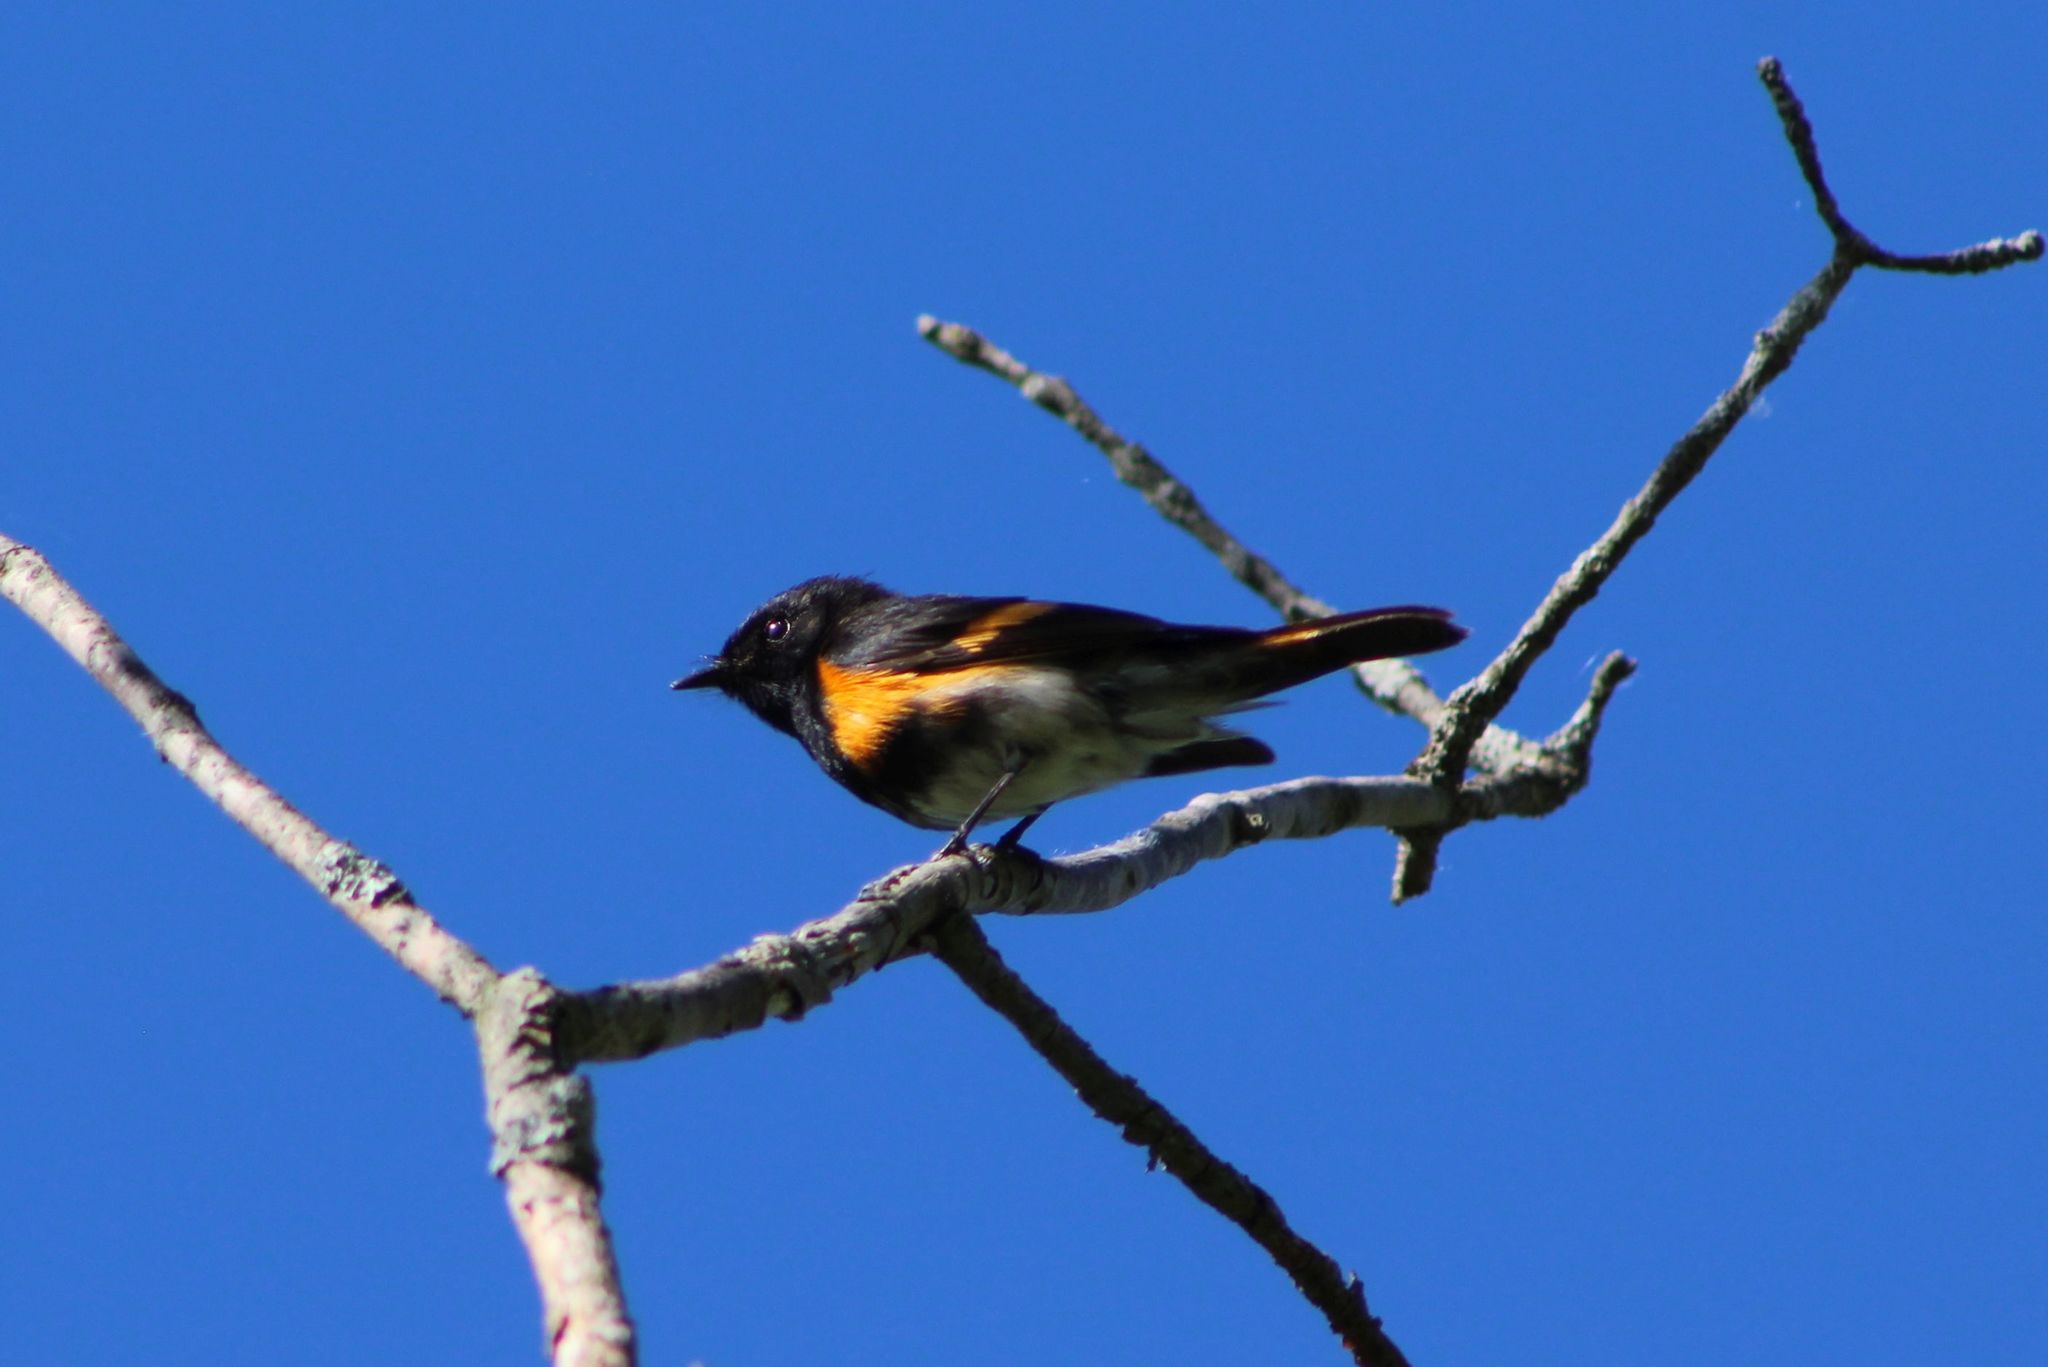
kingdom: Animalia
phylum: Chordata
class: Aves
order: Passeriformes
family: Parulidae
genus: Setophaga
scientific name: Setophaga ruticilla
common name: American redstart
